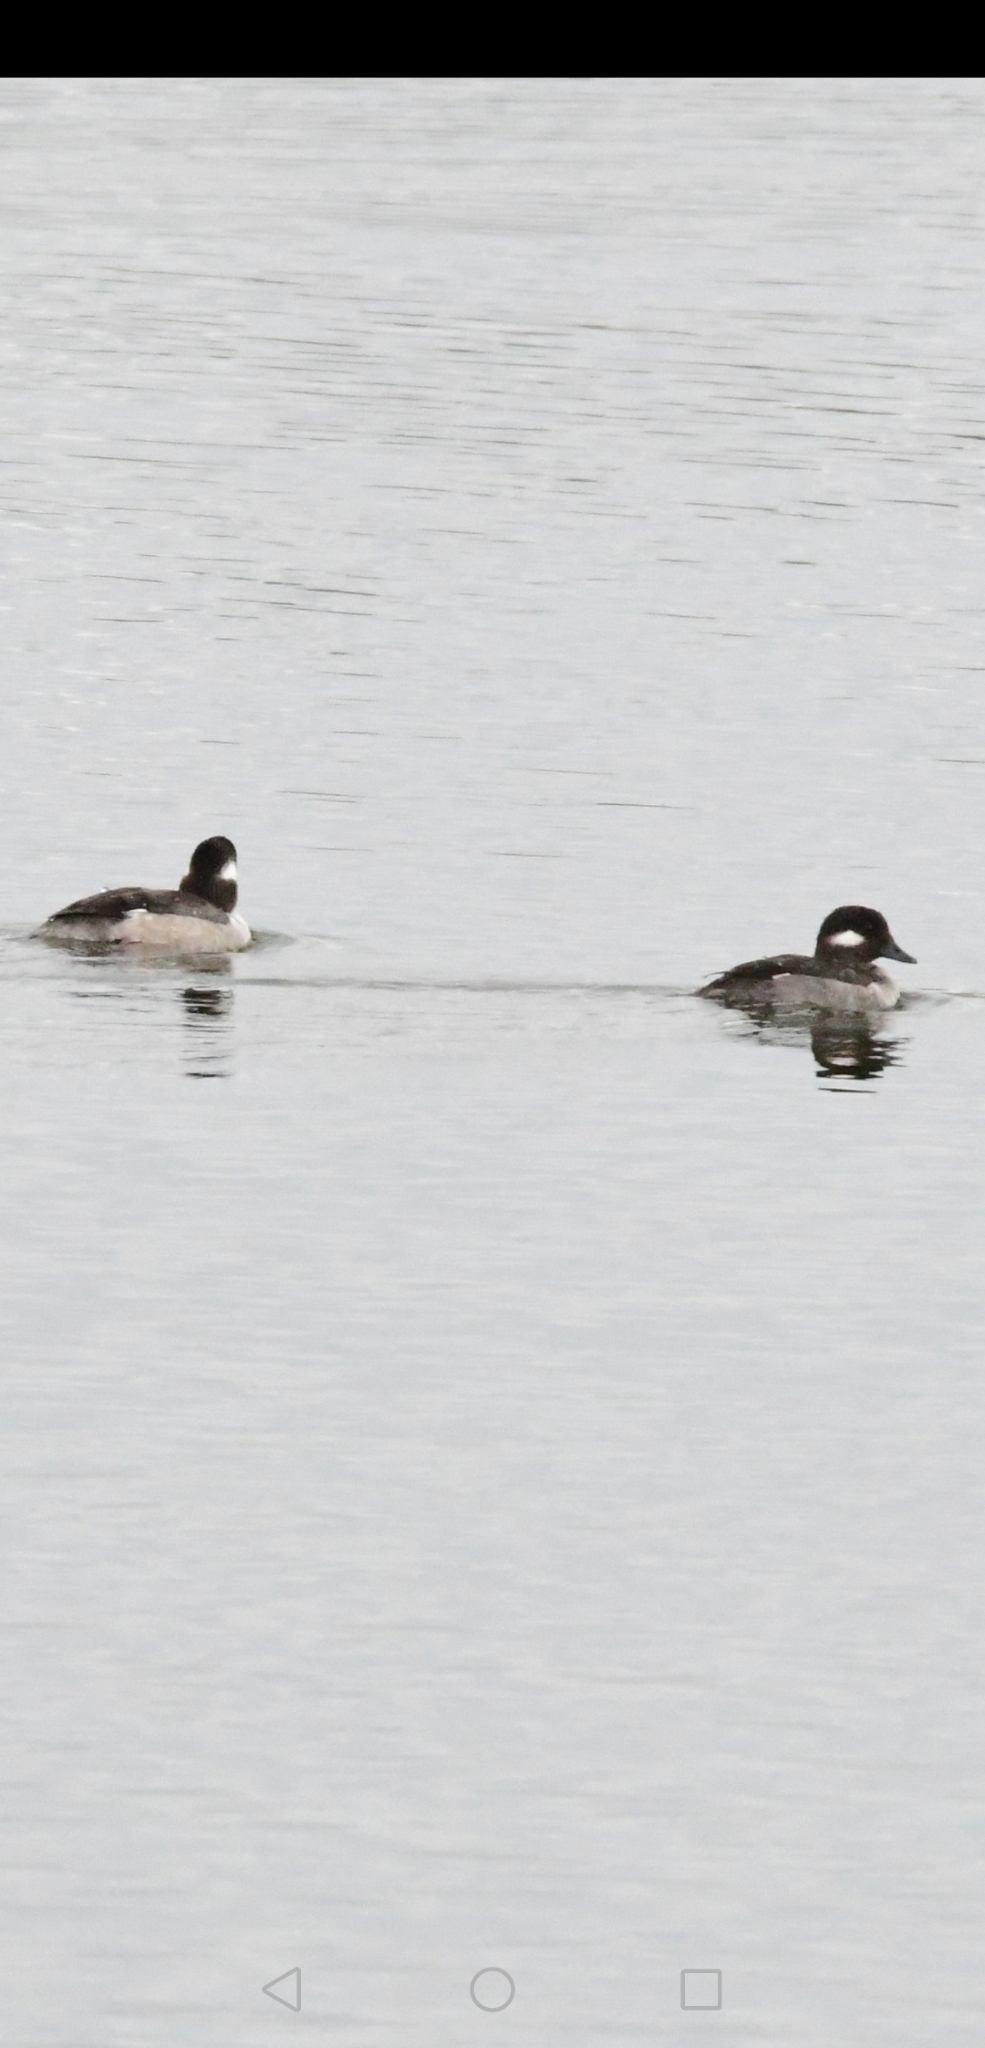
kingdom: Animalia
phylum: Chordata
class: Aves
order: Anseriformes
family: Anatidae
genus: Bucephala
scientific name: Bucephala albeola
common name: Bufflehead
